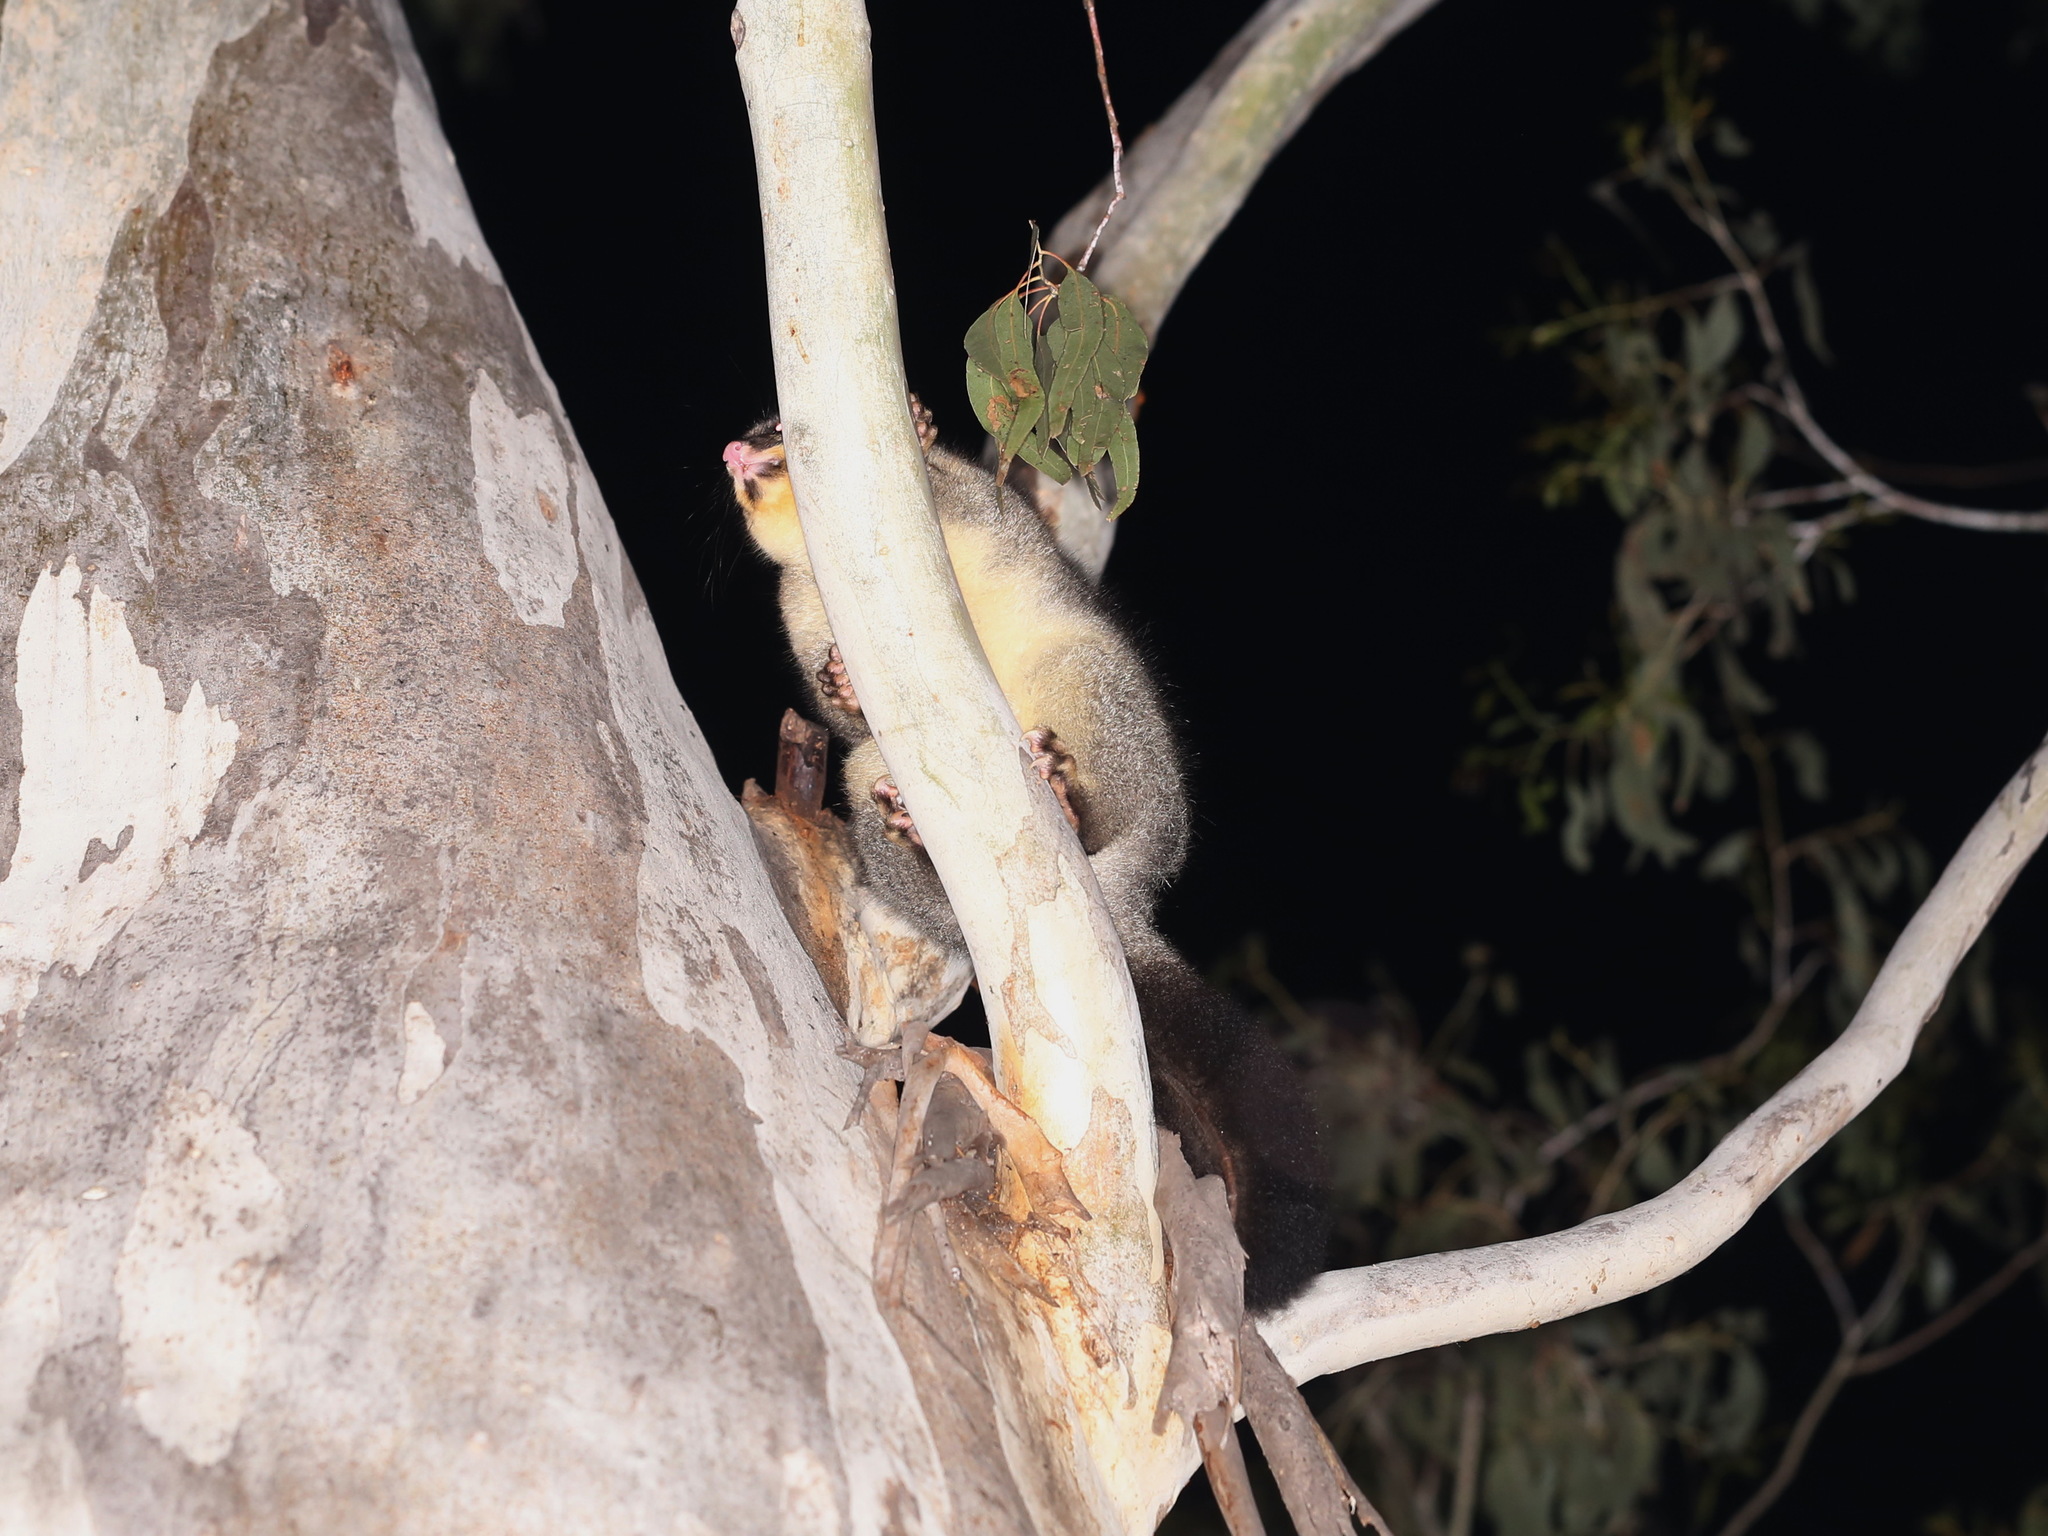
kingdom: Animalia
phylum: Chordata
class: Mammalia
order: Diprotodontia
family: Phalangeridae
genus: Trichosurus
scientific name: Trichosurus vulpecula
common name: Common brushtail
